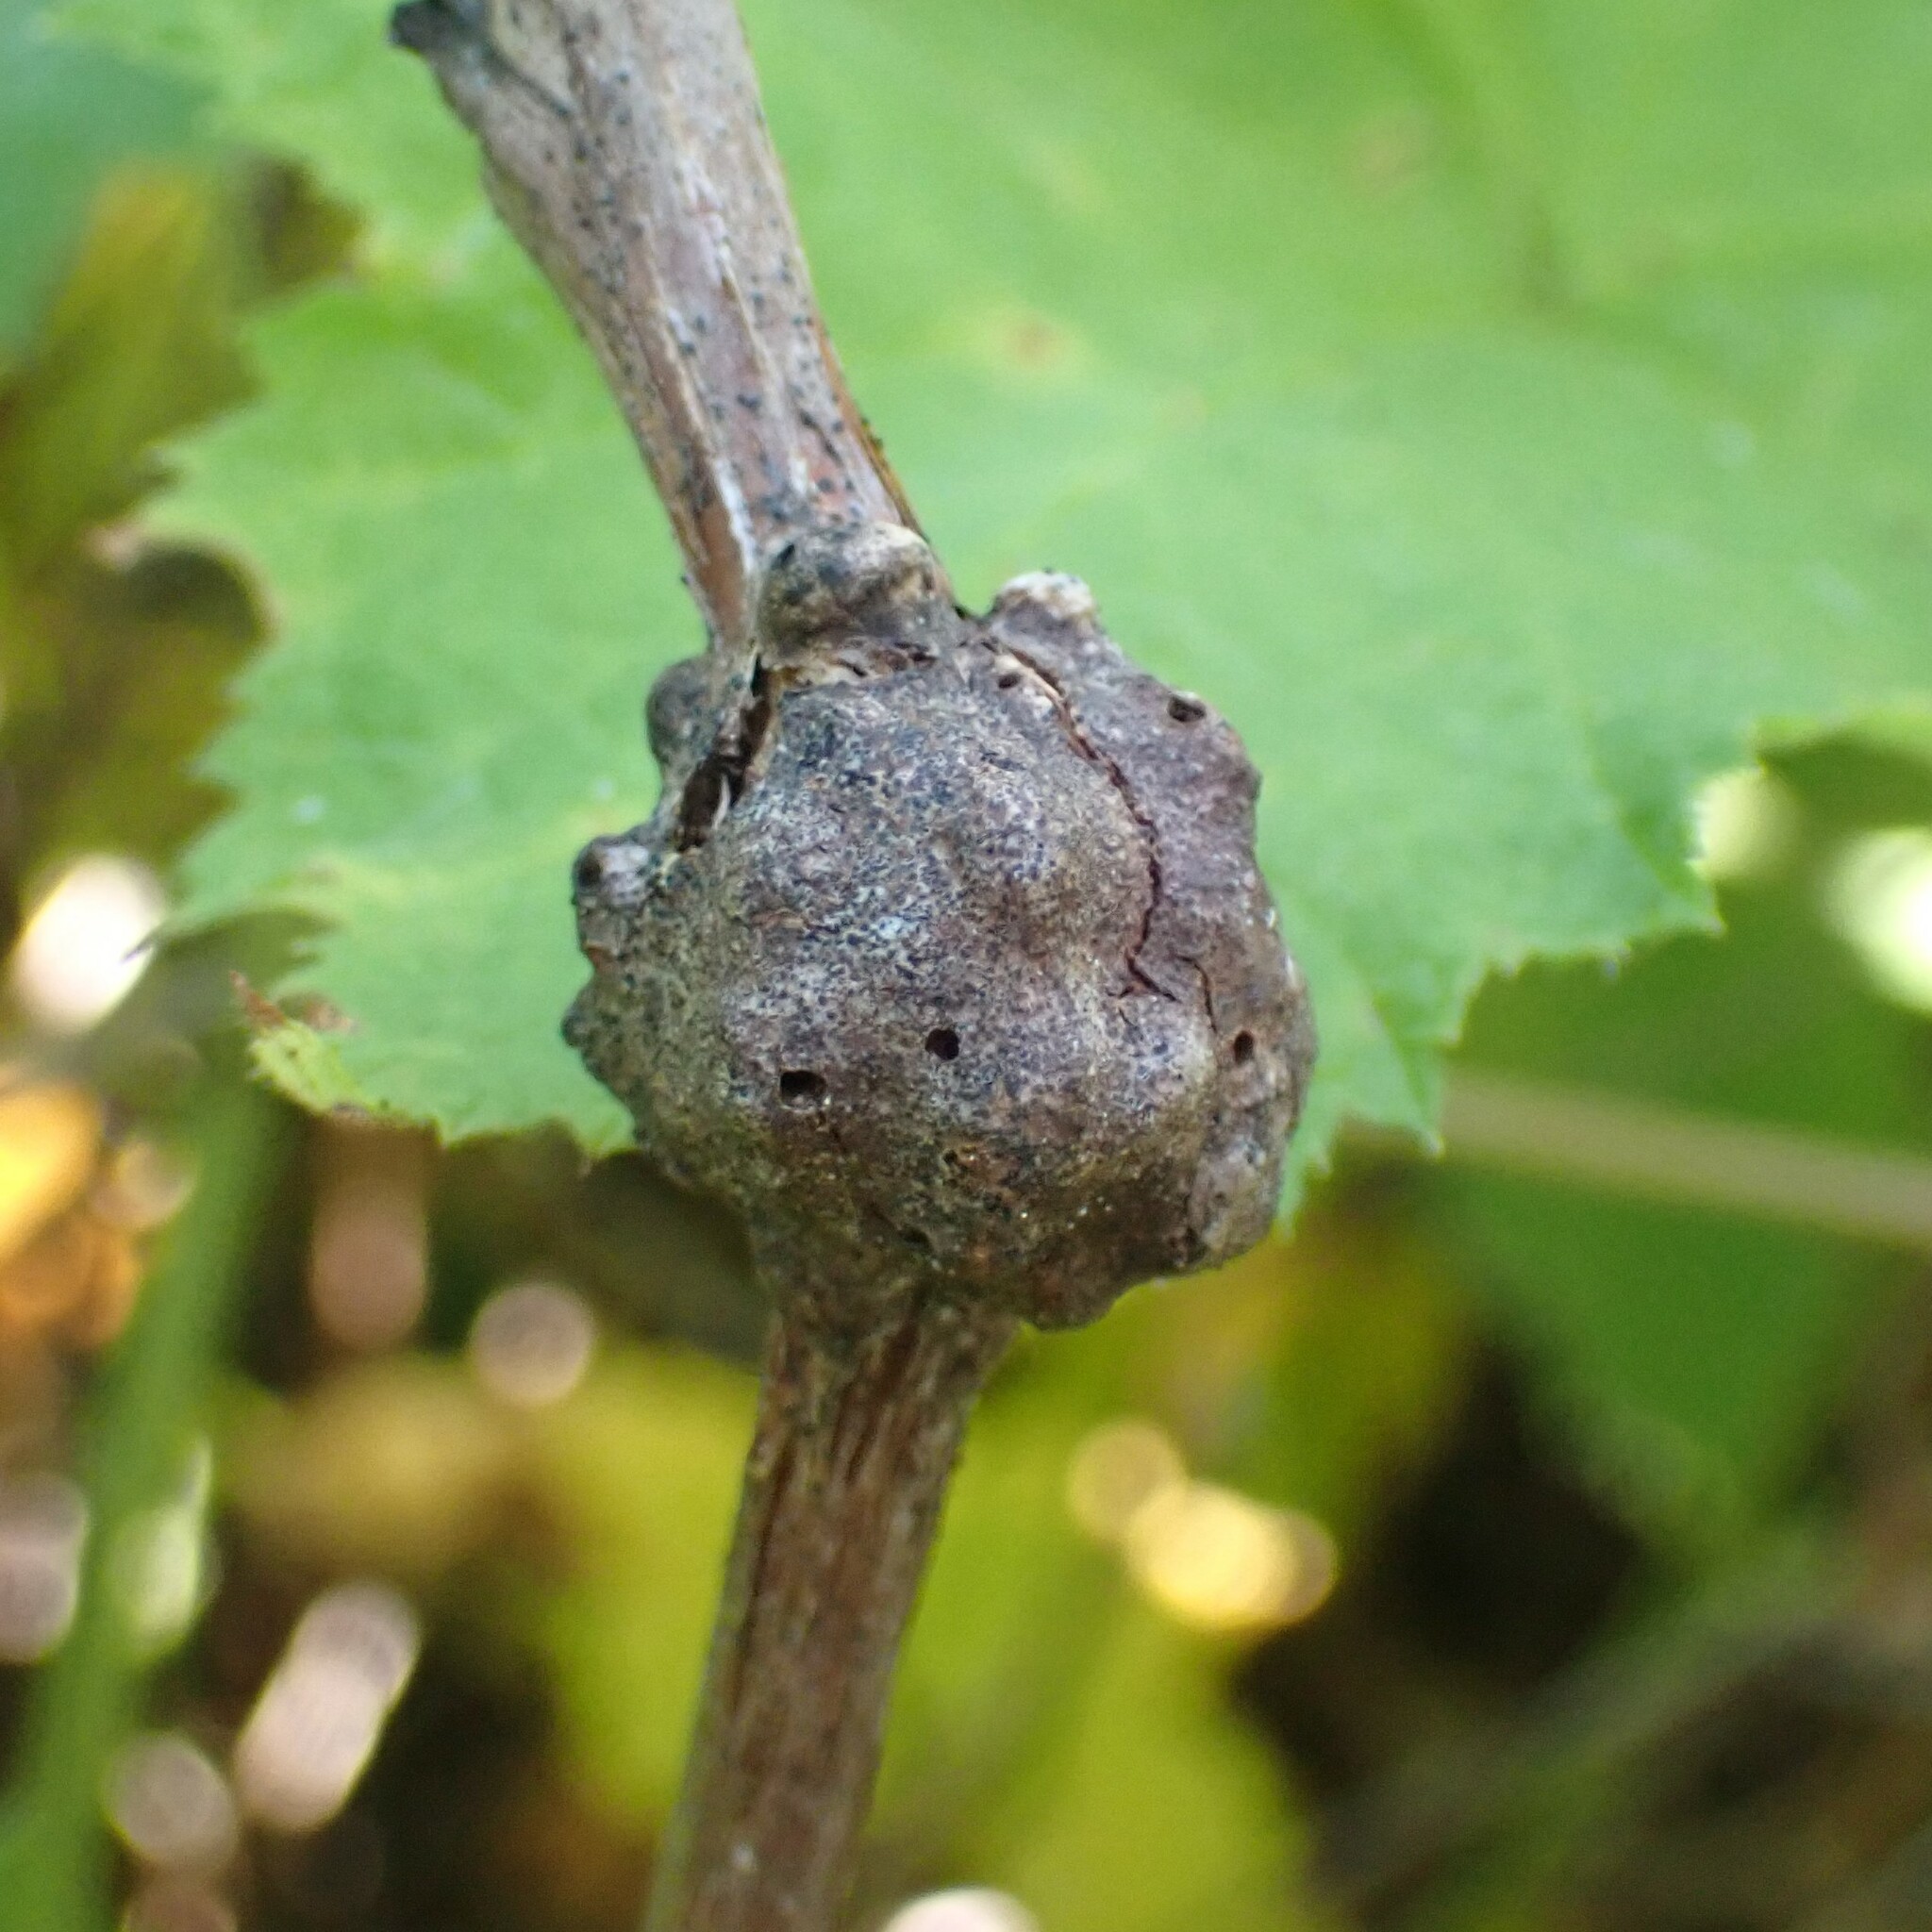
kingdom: Animalia
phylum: Arthropoda
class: Insecta
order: Hymenoptera
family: Cynipidae
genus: Diastrophus
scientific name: Diastrophus
